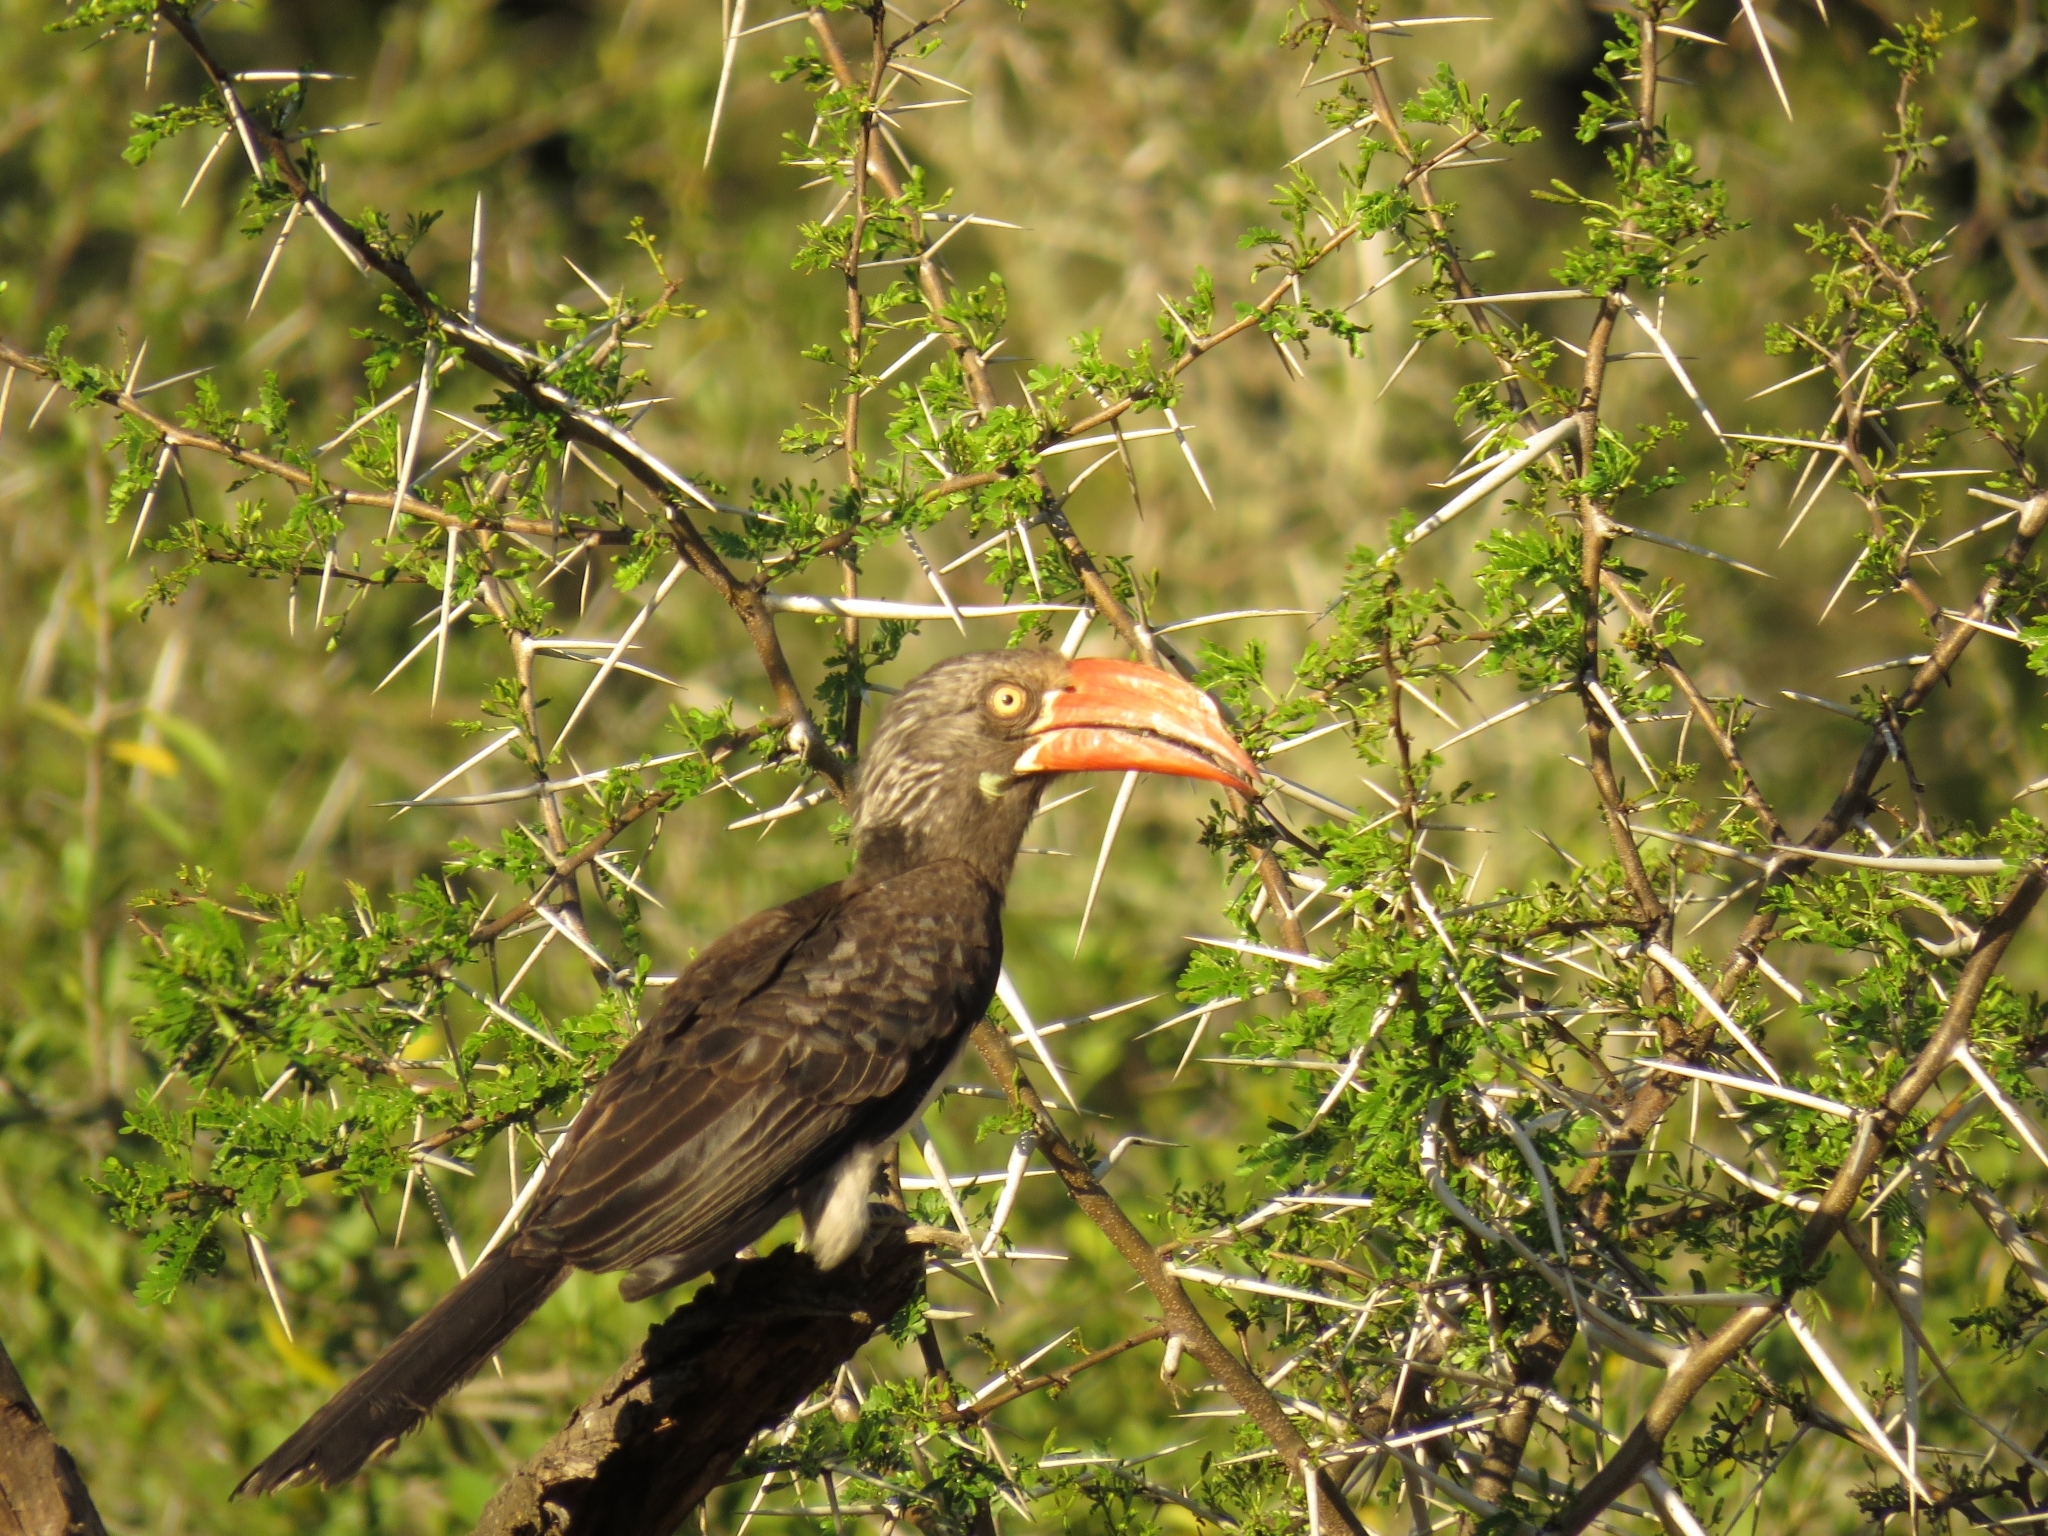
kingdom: Animalia
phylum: Chordata
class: Aves
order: Bucerotiformes
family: Bucerotidae
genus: Lophoceros
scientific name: Lophoceros alboterminatus
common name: Crowned hornbill
